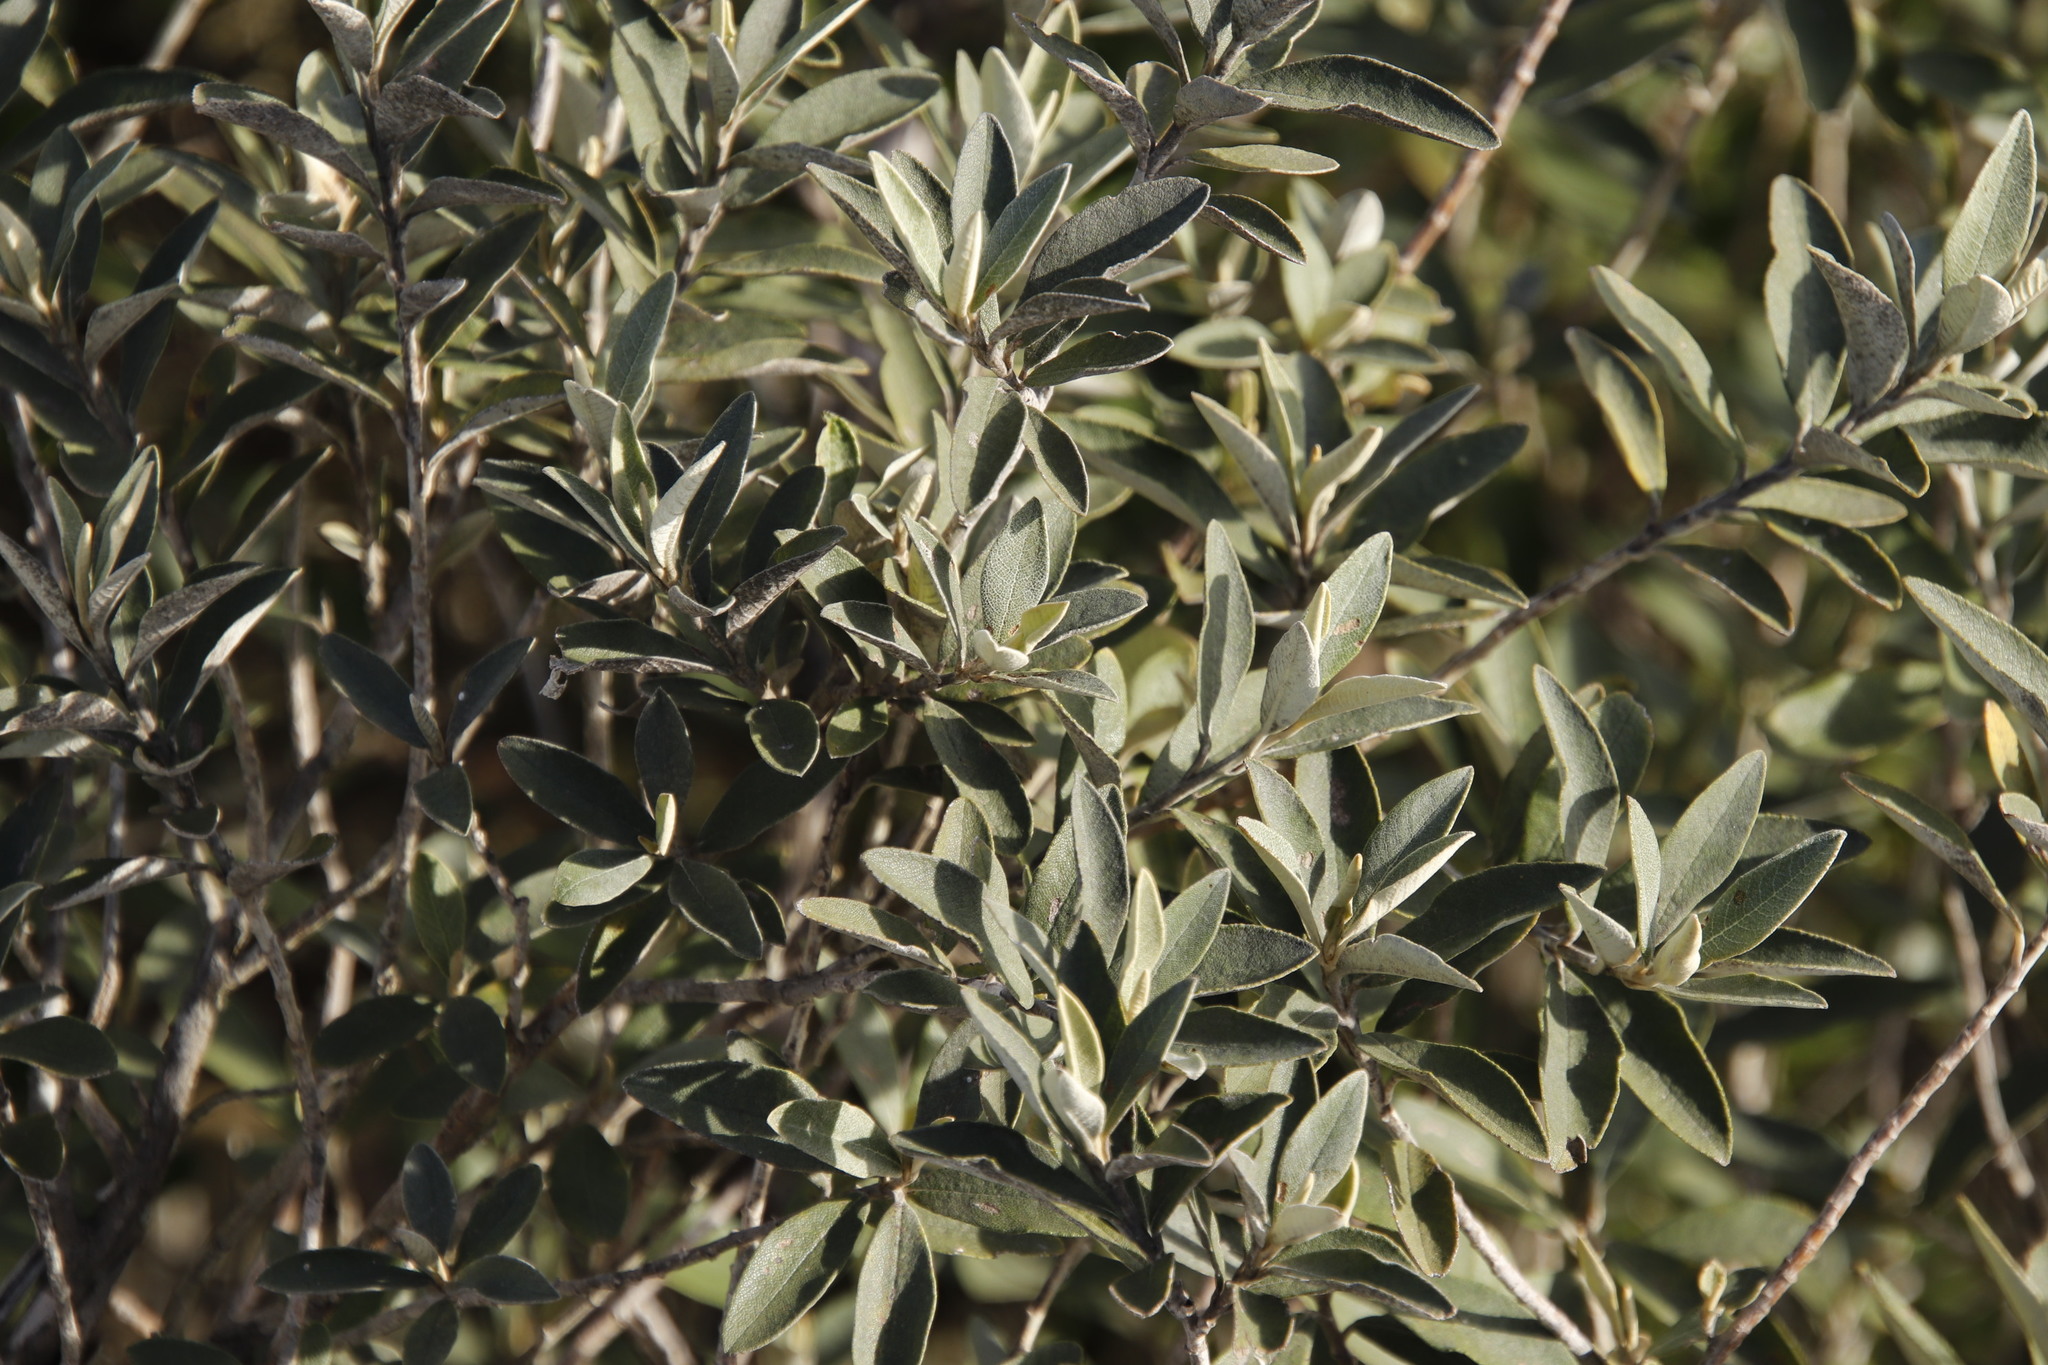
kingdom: Plantae
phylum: Tracheophyta
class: Magnoliopsida
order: Asterales
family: Asteraceae
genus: Tarchonanthus
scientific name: Tarchonanthus littoralis
